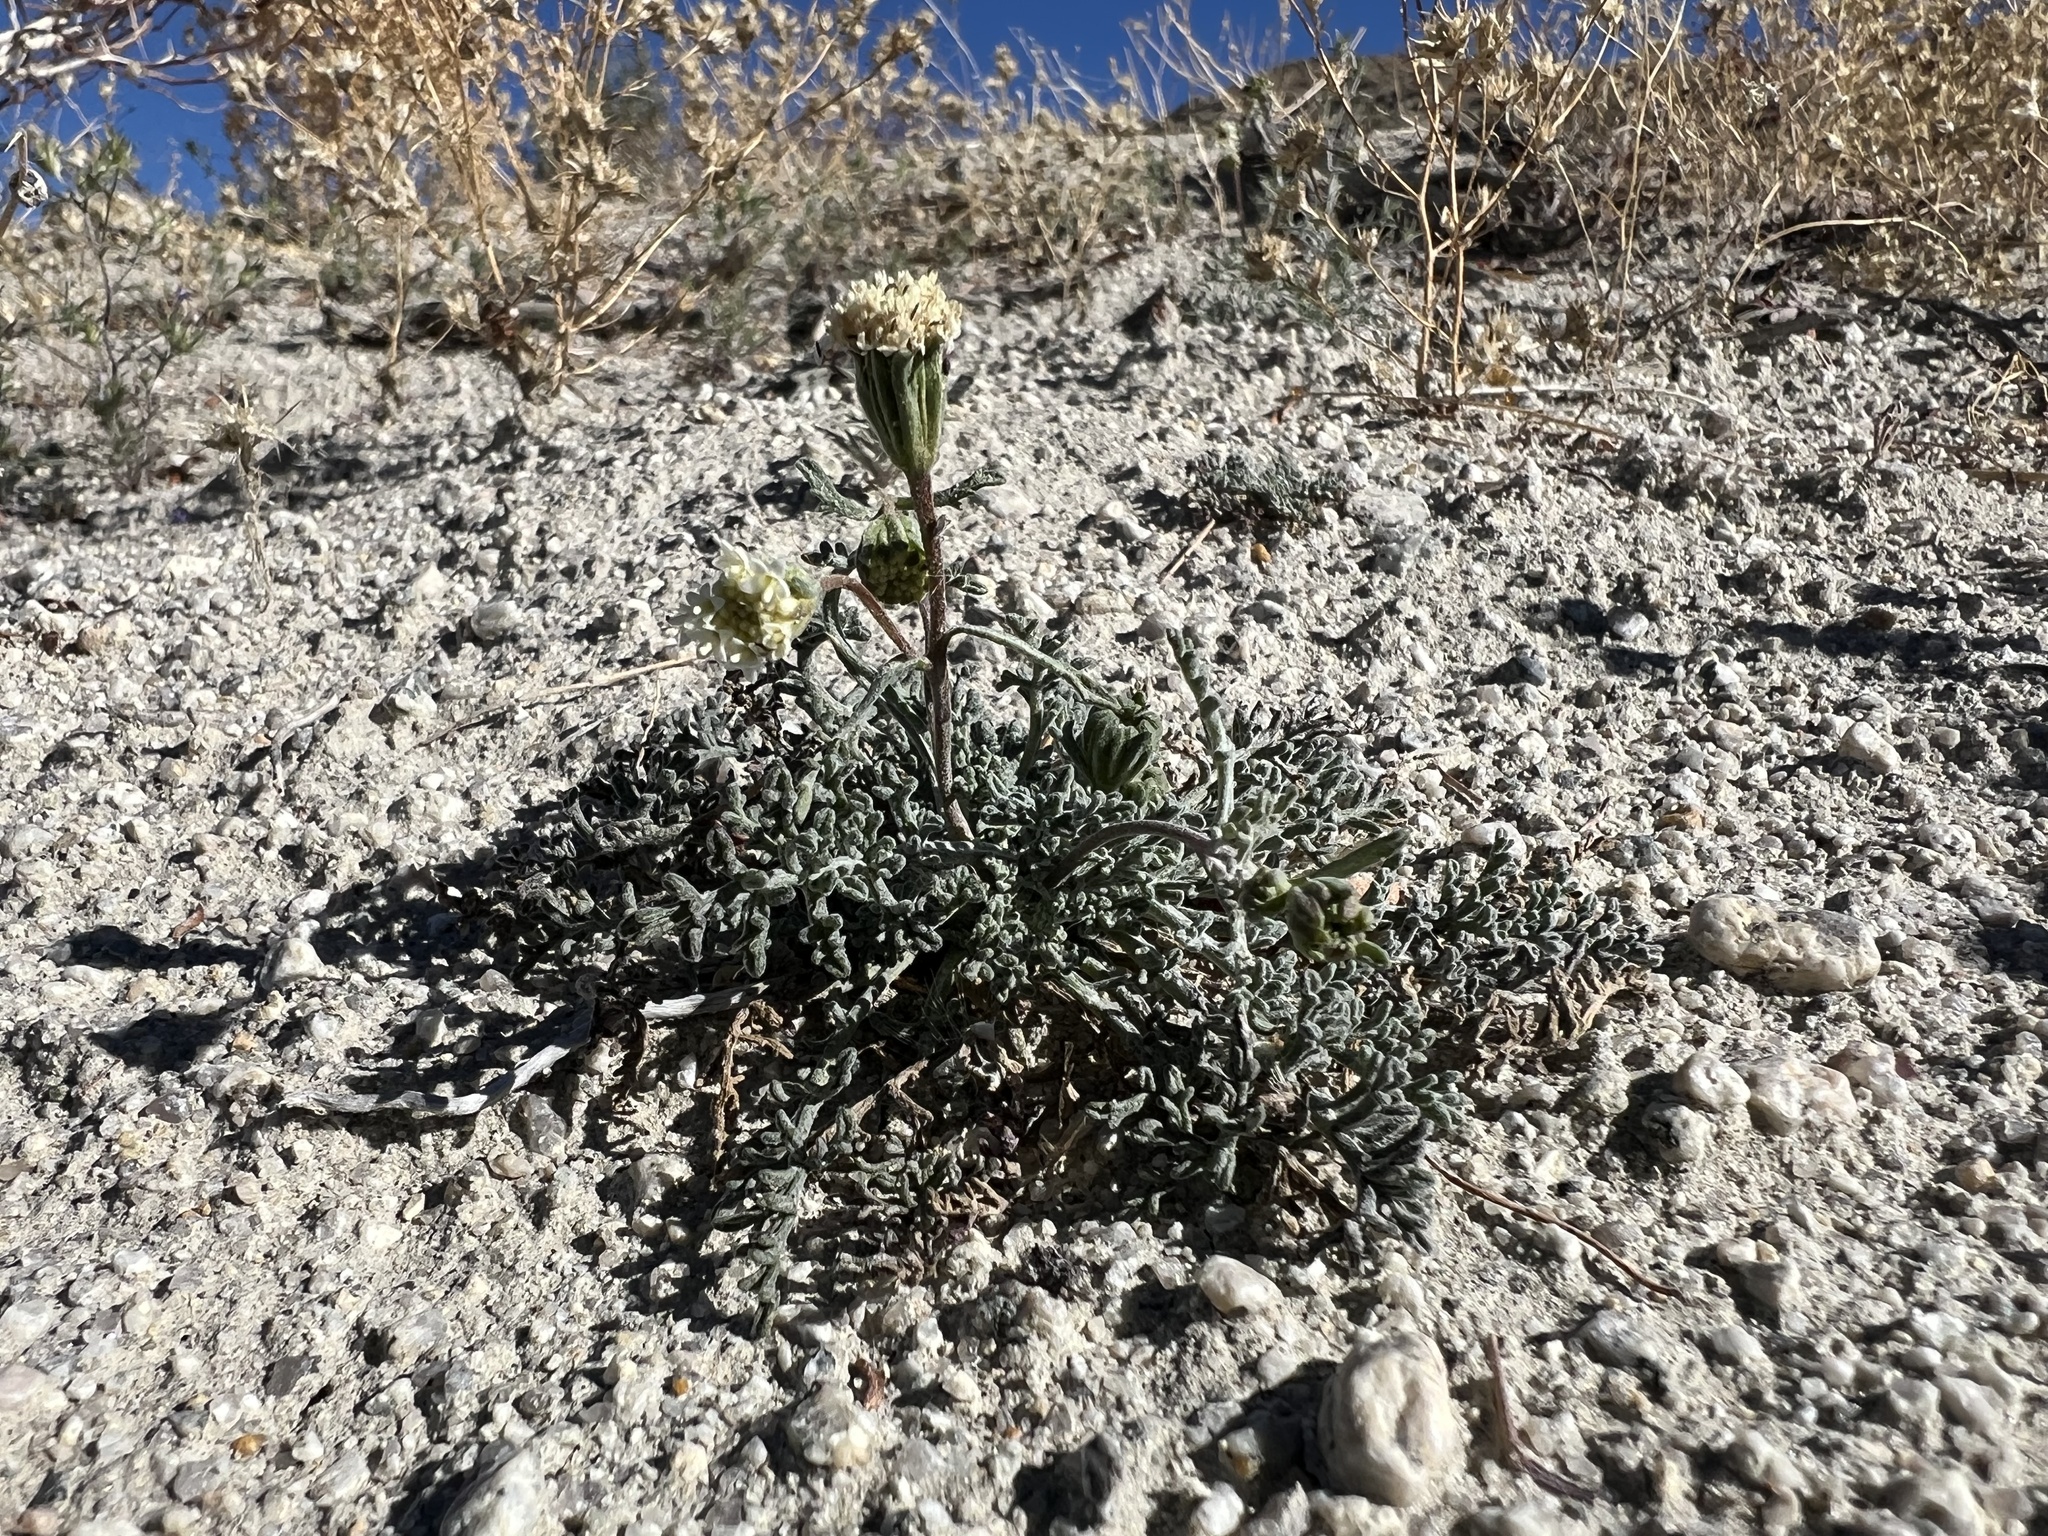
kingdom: Plantae
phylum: Tracheophyta
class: Magnoliopsida
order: Asterales
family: Asteraceae
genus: Chaenactis
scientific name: Chaenactis stevioides
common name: Desert pincushion
